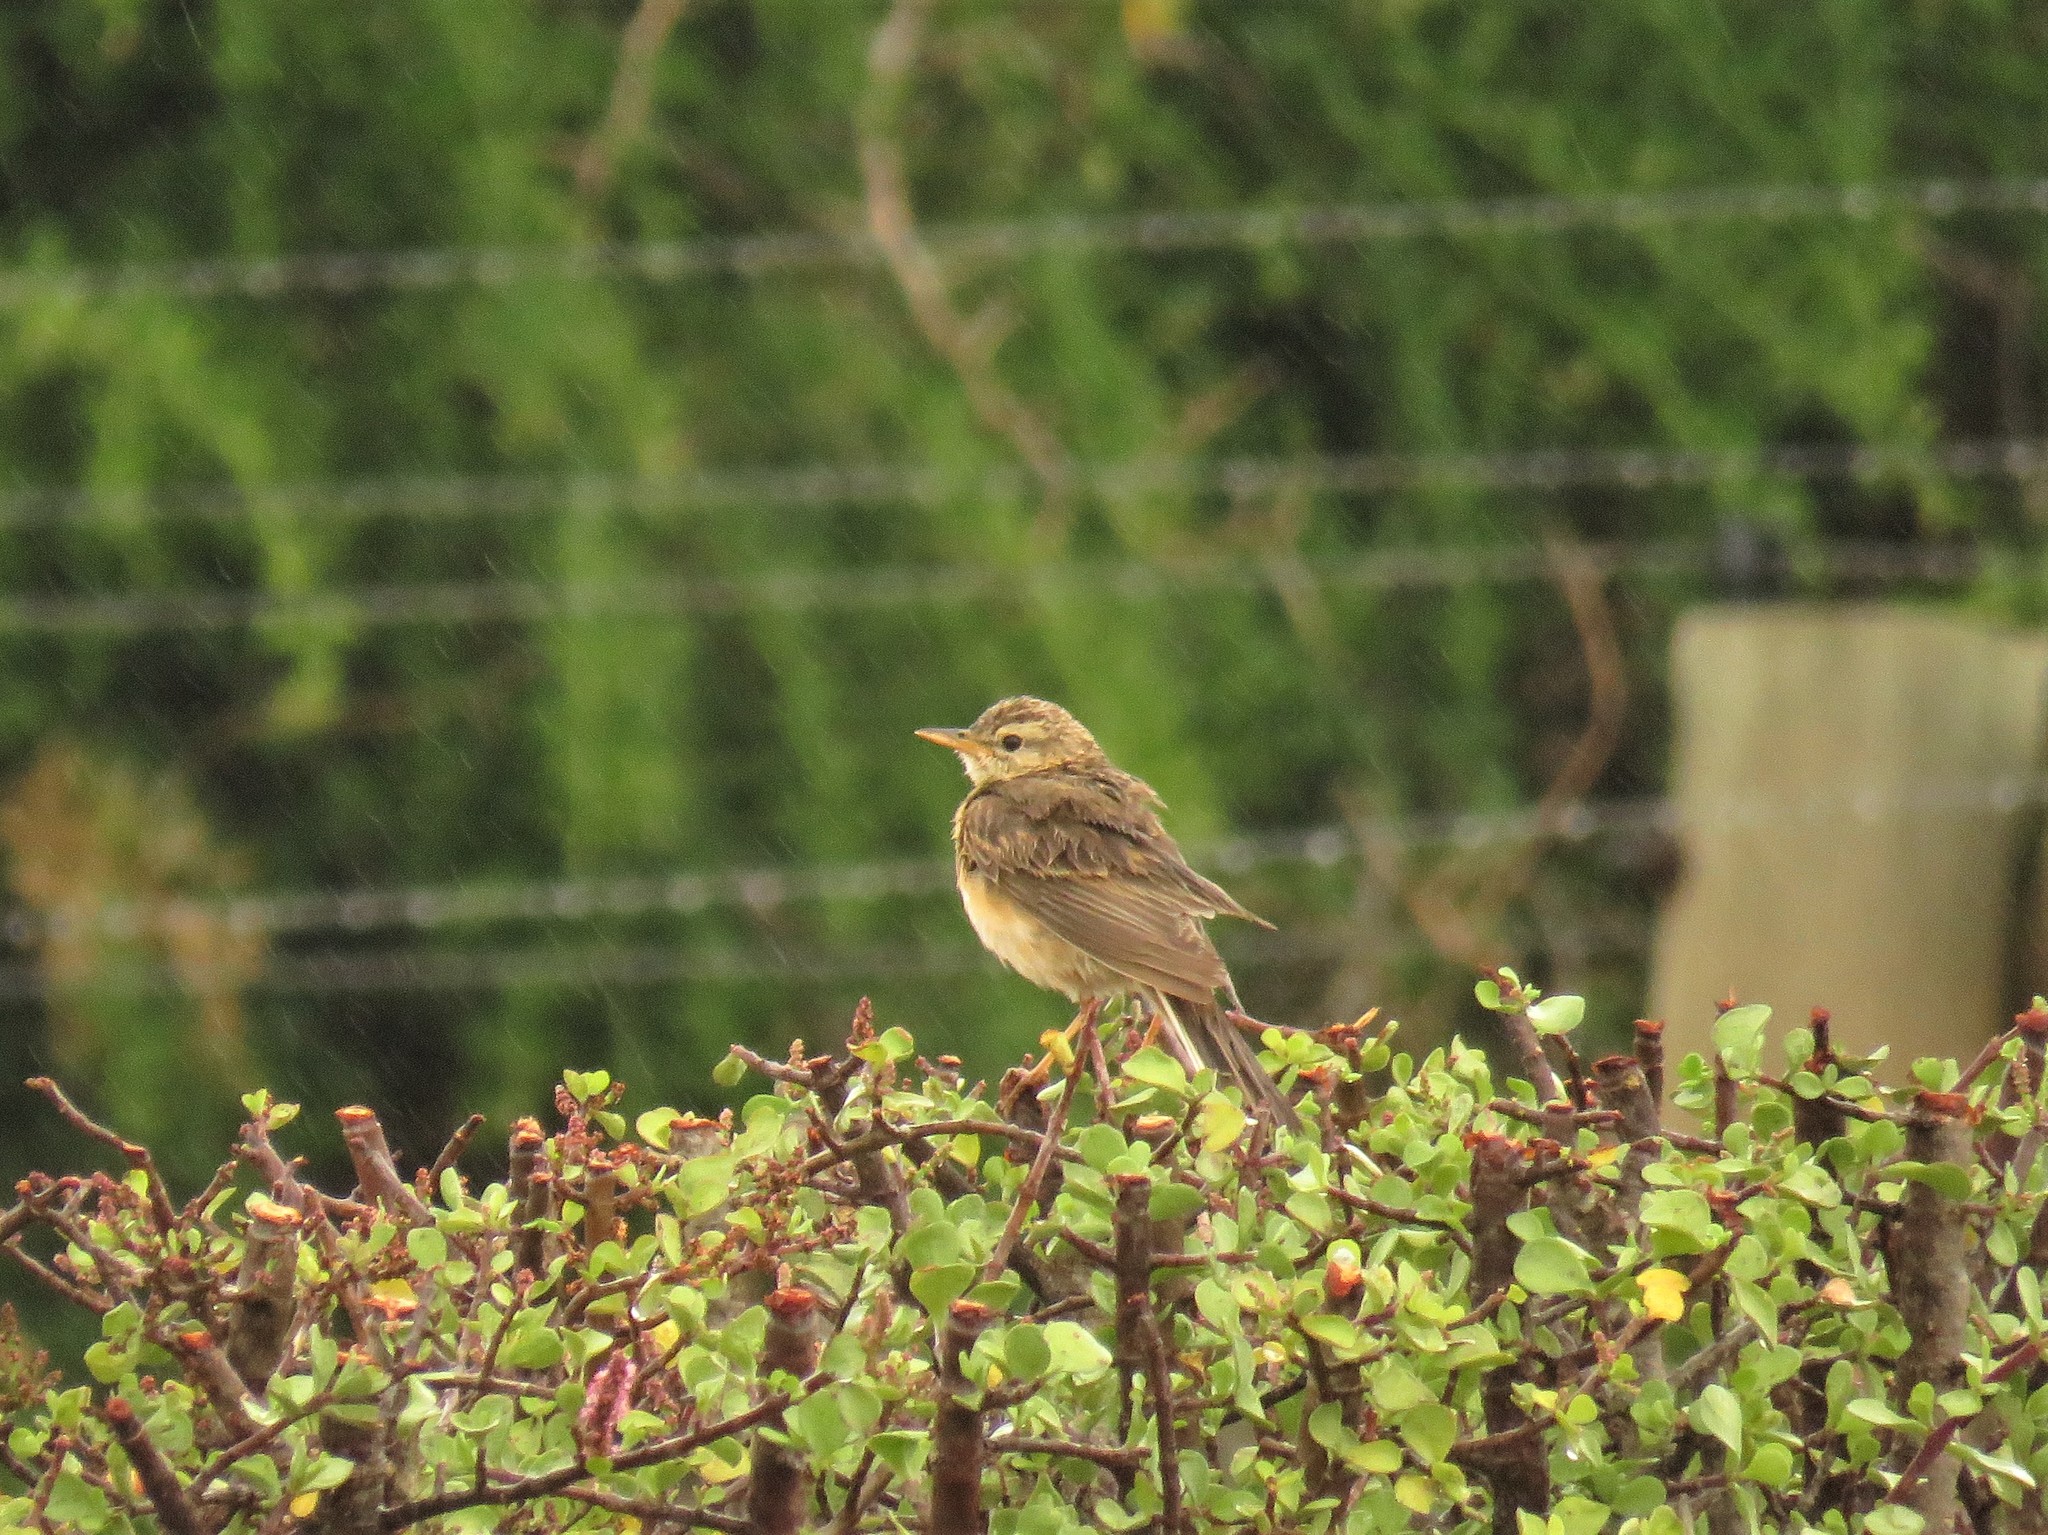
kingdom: Animalia
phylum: Chordata
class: Aves
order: Passeriformes
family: Motacillidae
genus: Anthus
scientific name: Anthus cinnamomeus
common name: African pipit
